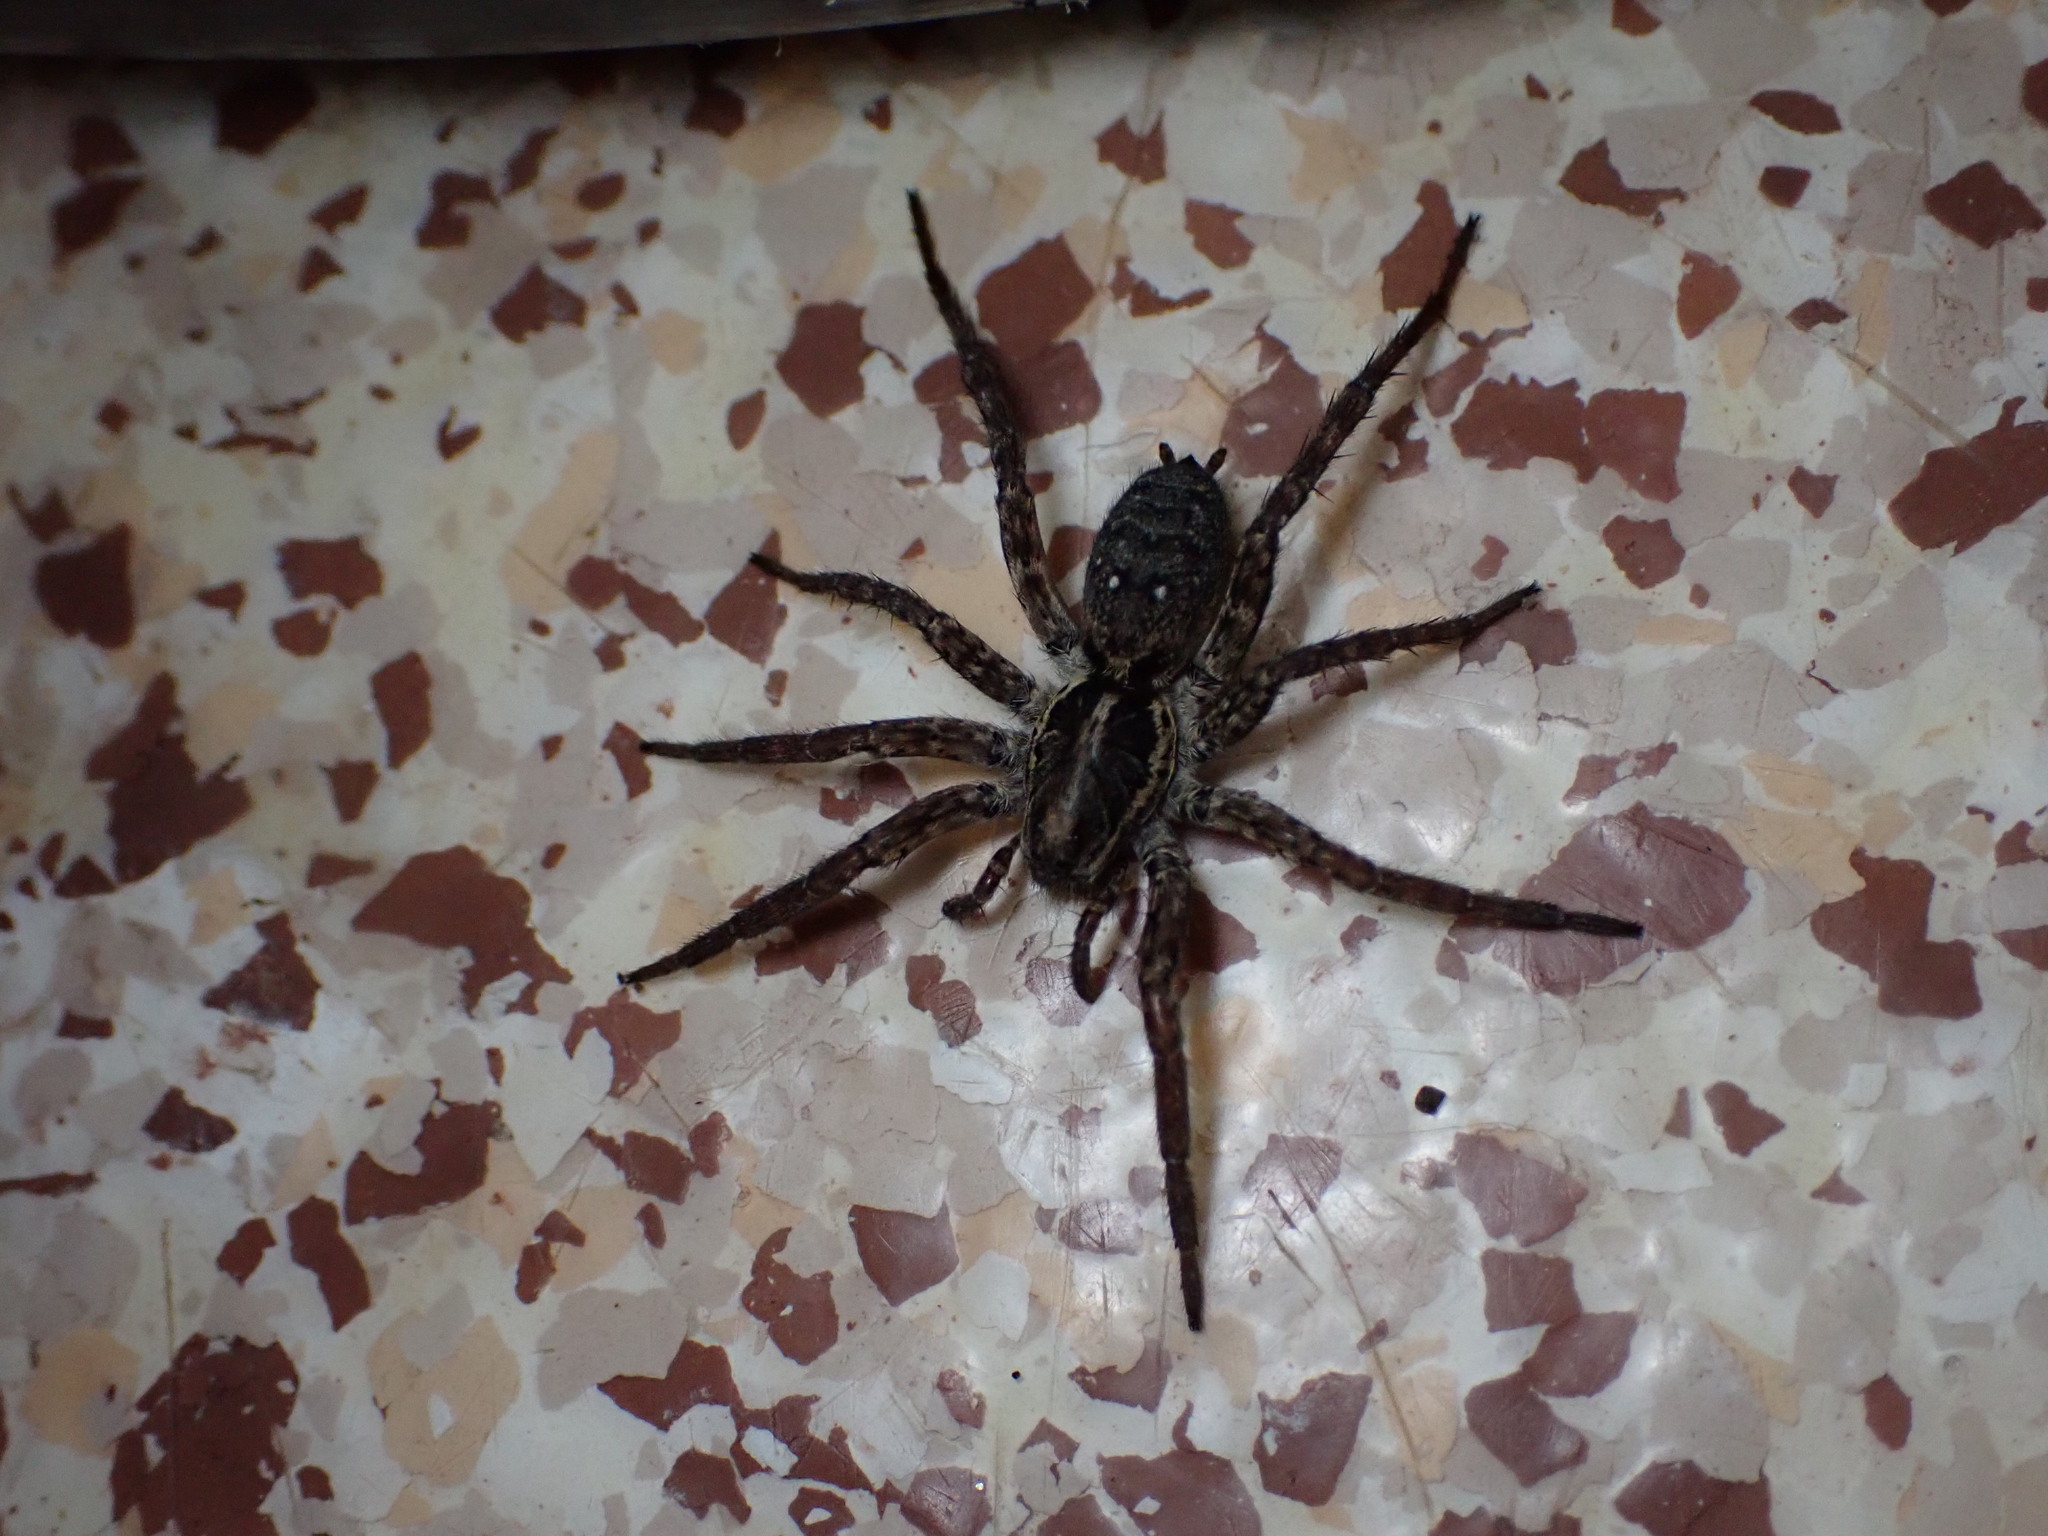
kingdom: Animalia
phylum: Arthropoda
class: Arachnida
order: Araneae
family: Lycosidae
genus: Hogna
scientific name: Hogna crispipes
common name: Wolf spider
